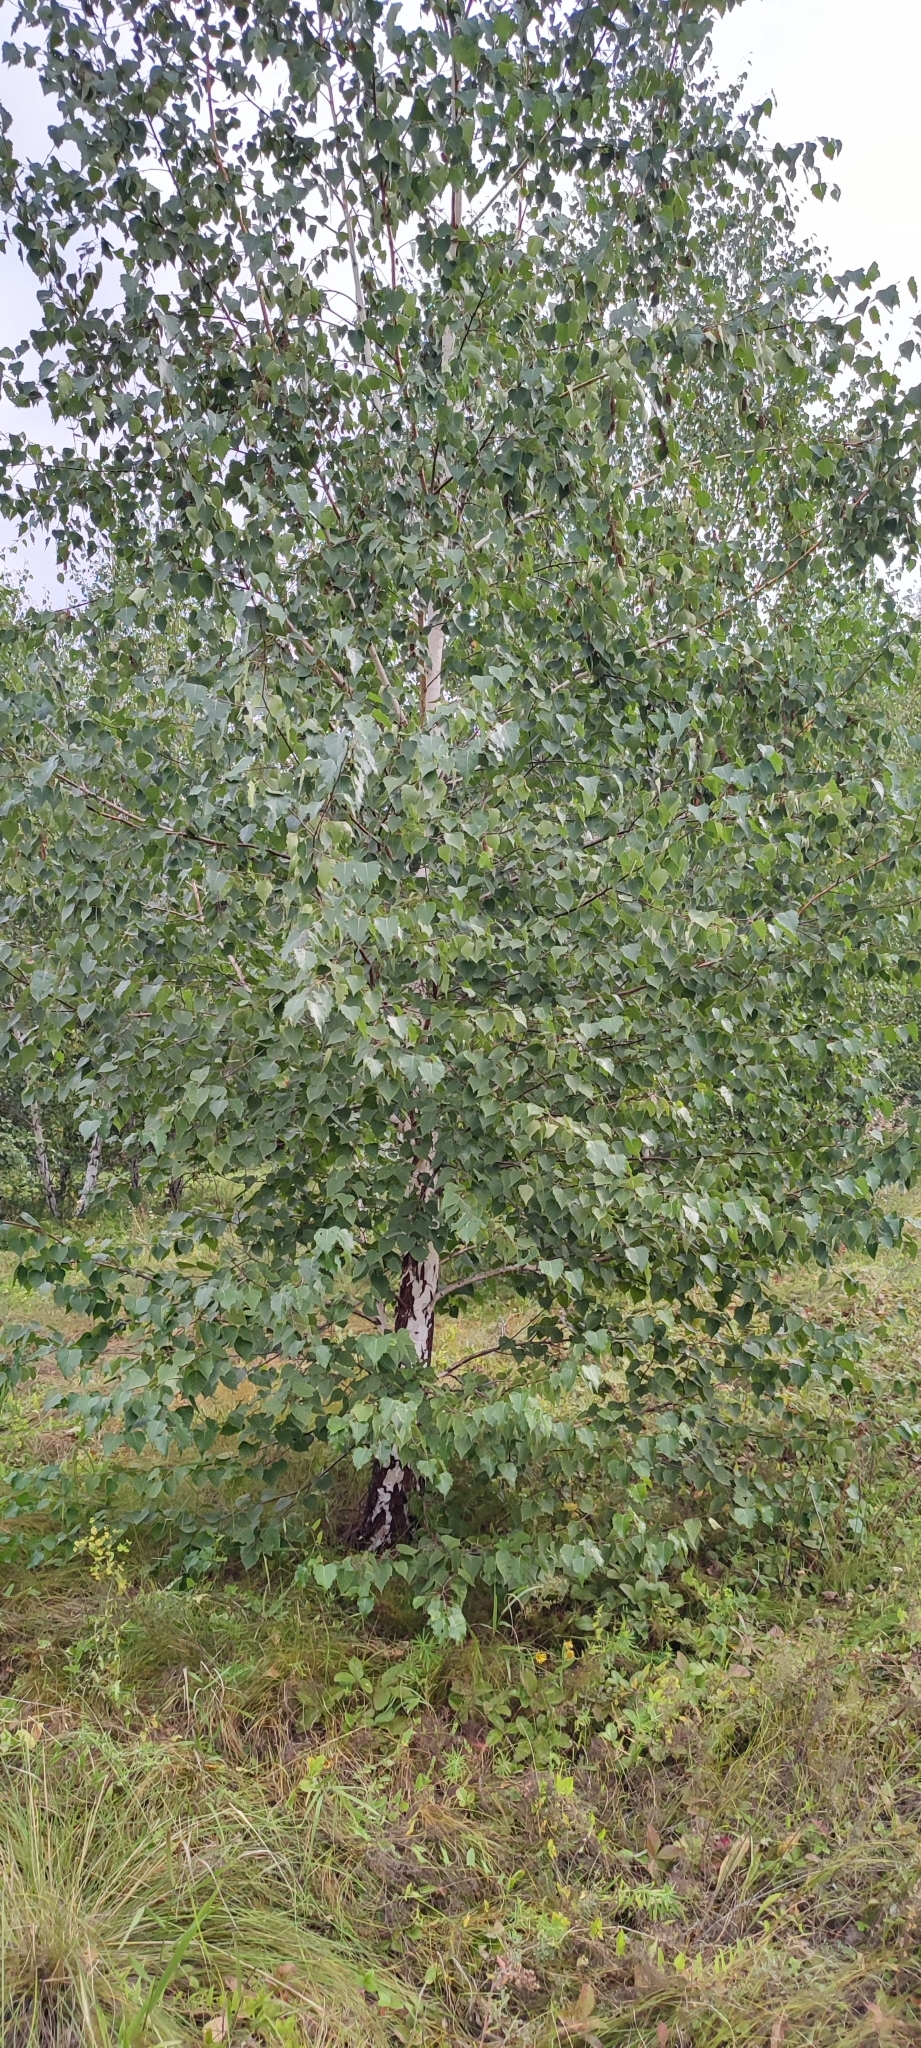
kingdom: Plantae
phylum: Tracheophyta
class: Magnoliopsida
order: Fagales
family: Betulaceae
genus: Betula
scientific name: Betula pendula
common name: Silver birch
